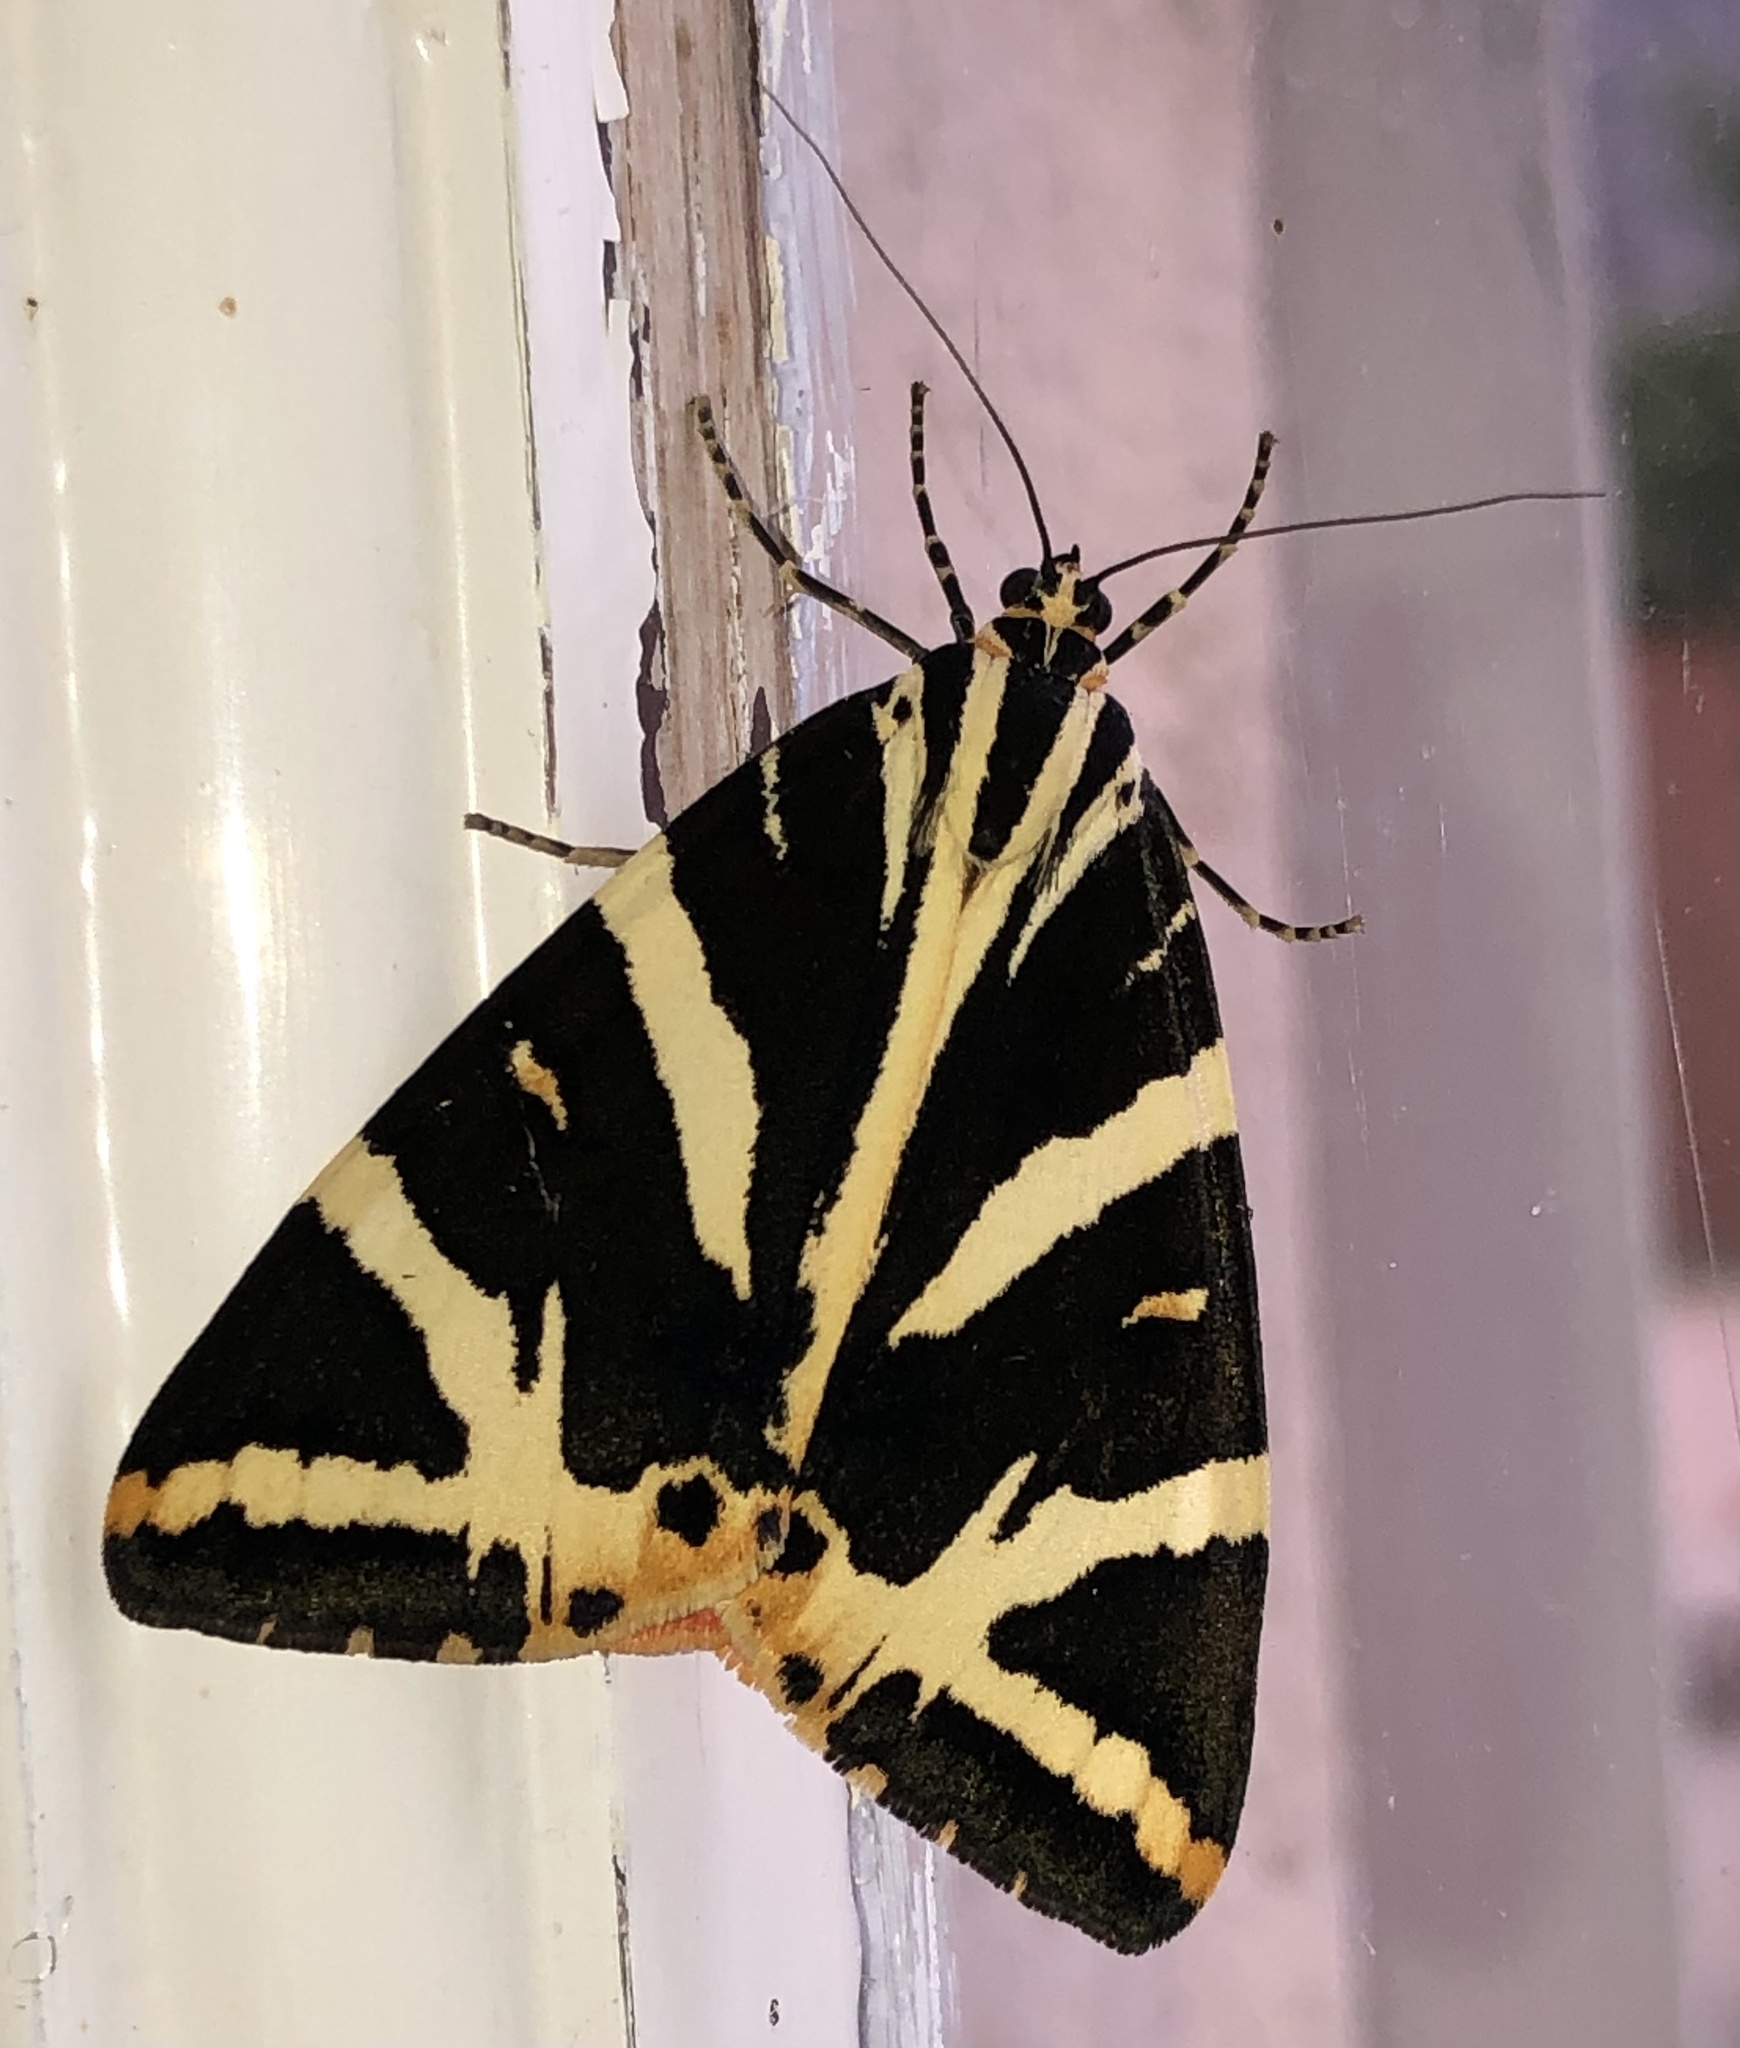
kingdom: Animalia
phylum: Arthropoda
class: Insecta
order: Lepidoptera
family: Erebidae
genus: Euplagia
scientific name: Euplagia quadripunctaria
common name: Jersey tiger
